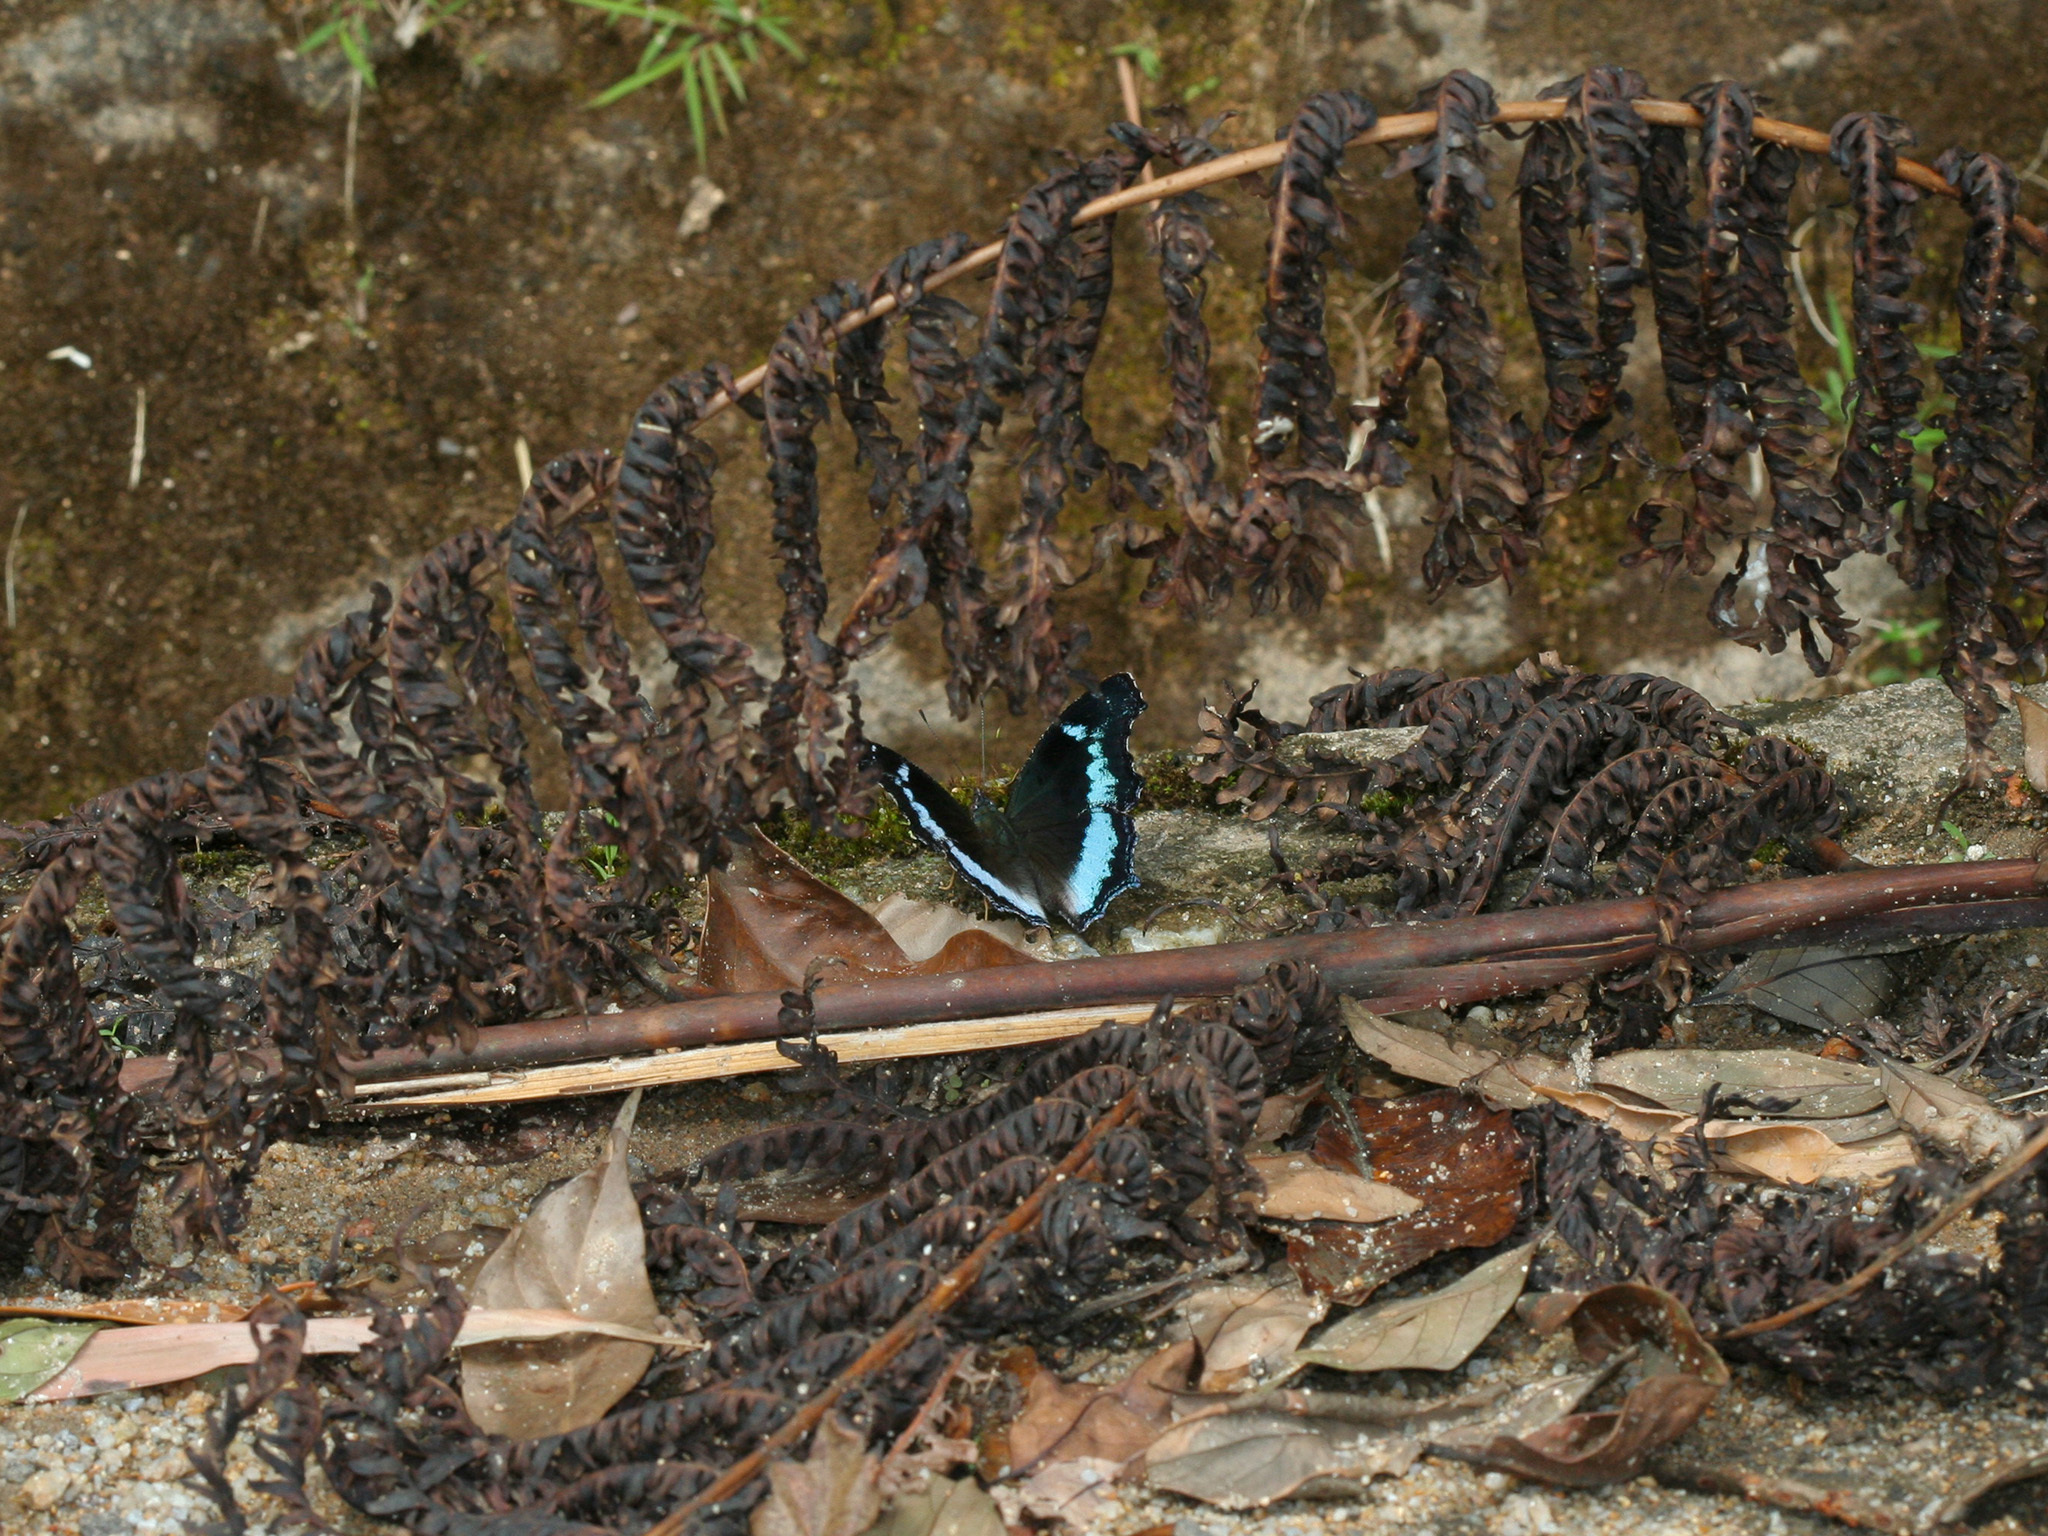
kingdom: Animalia
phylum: Arthropoda
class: Insecta
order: Lepidoptera
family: Nymphalidae
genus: Vanessa
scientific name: Vanessa Kaniska canace
